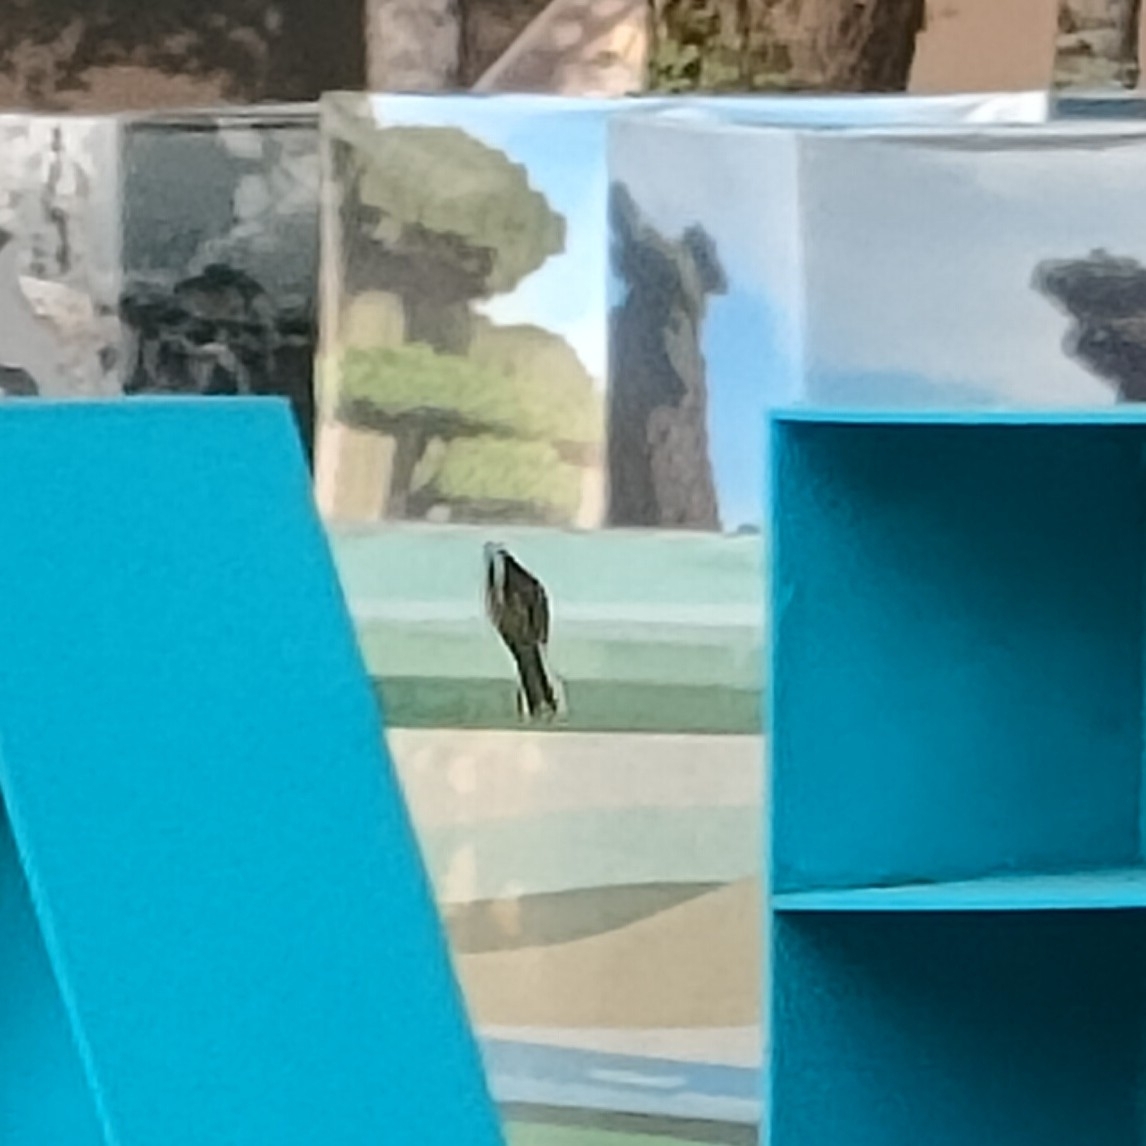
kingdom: Animalia
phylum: Chordata
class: Aves
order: Passeriformes
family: Fringillidae
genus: Fringilla
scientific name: Fringilla coelebs
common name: Common chaffinch
